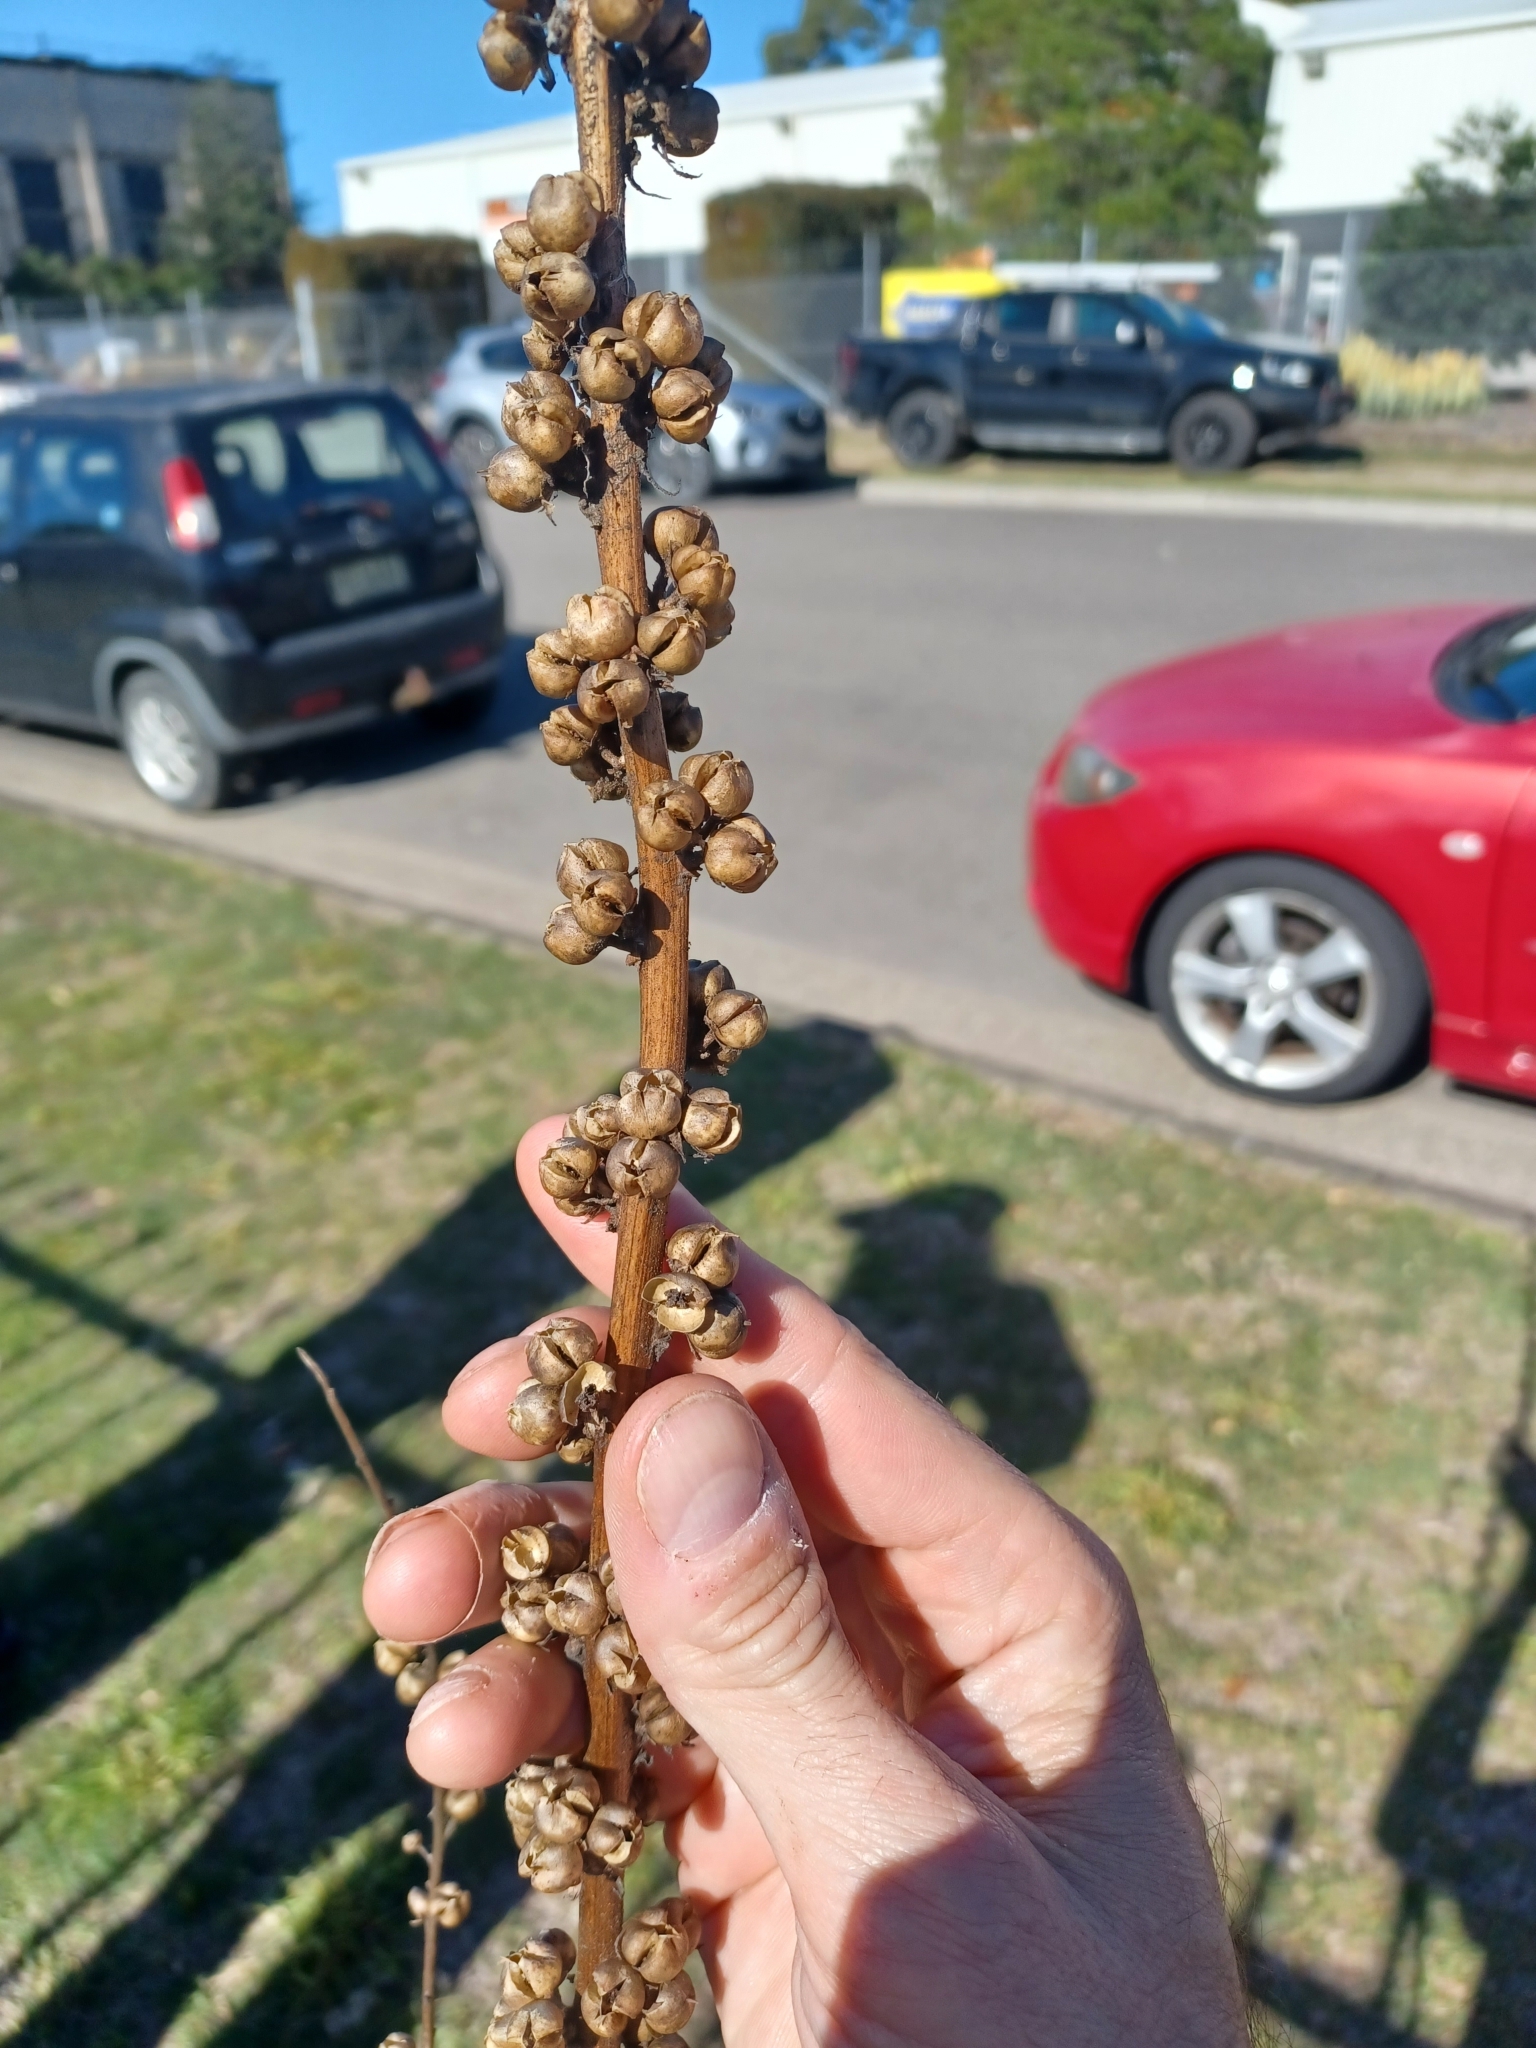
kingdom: Plantae
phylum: Tracheophyta
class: Magnoliopsida
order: Lamiales
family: Scrophulariaceae
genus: Verbascum
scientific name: Verbascum virgatum
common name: Twiggy mullein
